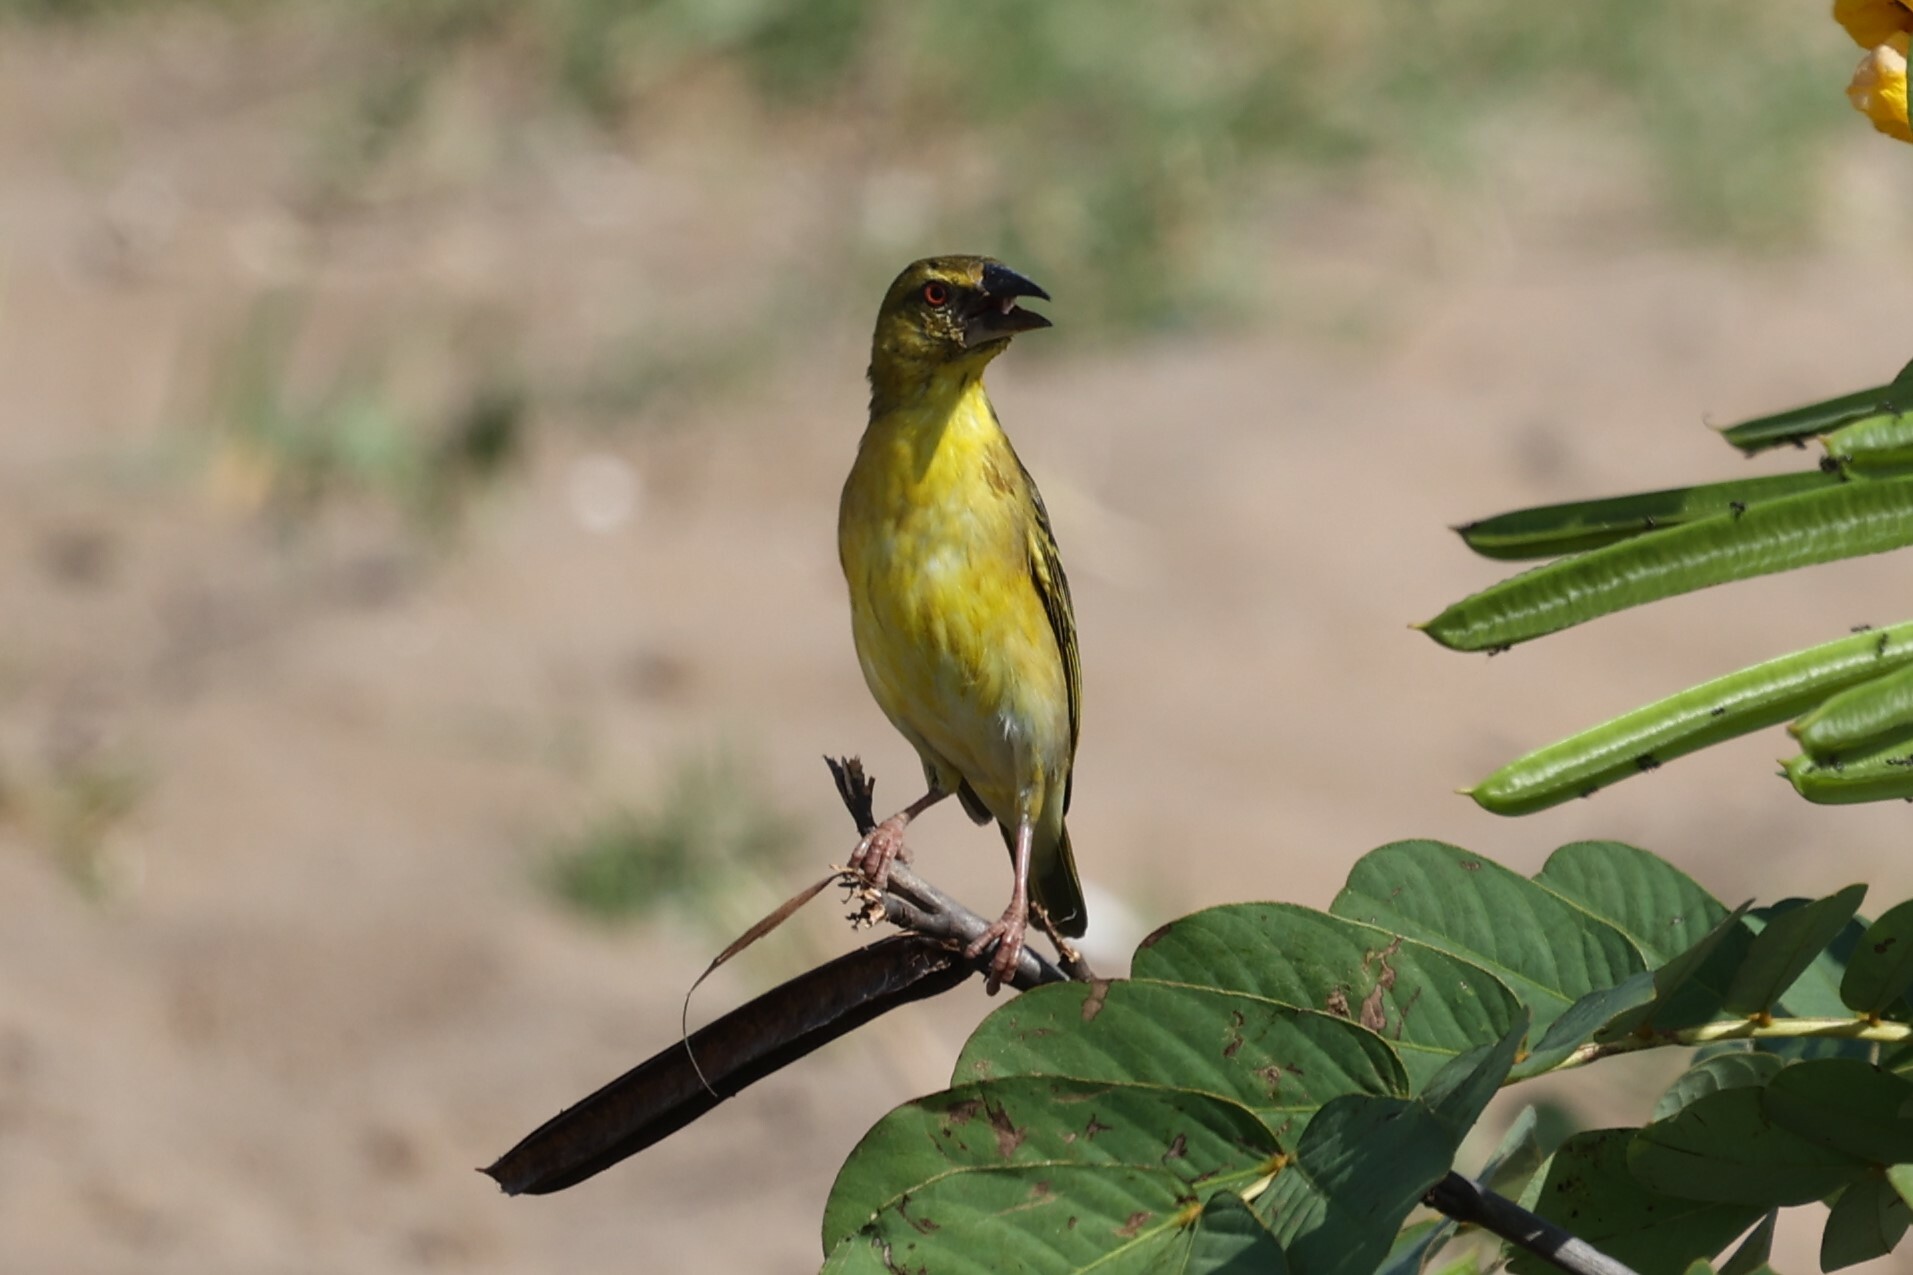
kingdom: Animalia
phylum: Chordata
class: Aves
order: Passeriformes
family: Ploceidae
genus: Ploceus
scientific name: Ploceus cucullatus
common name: Village weaver
